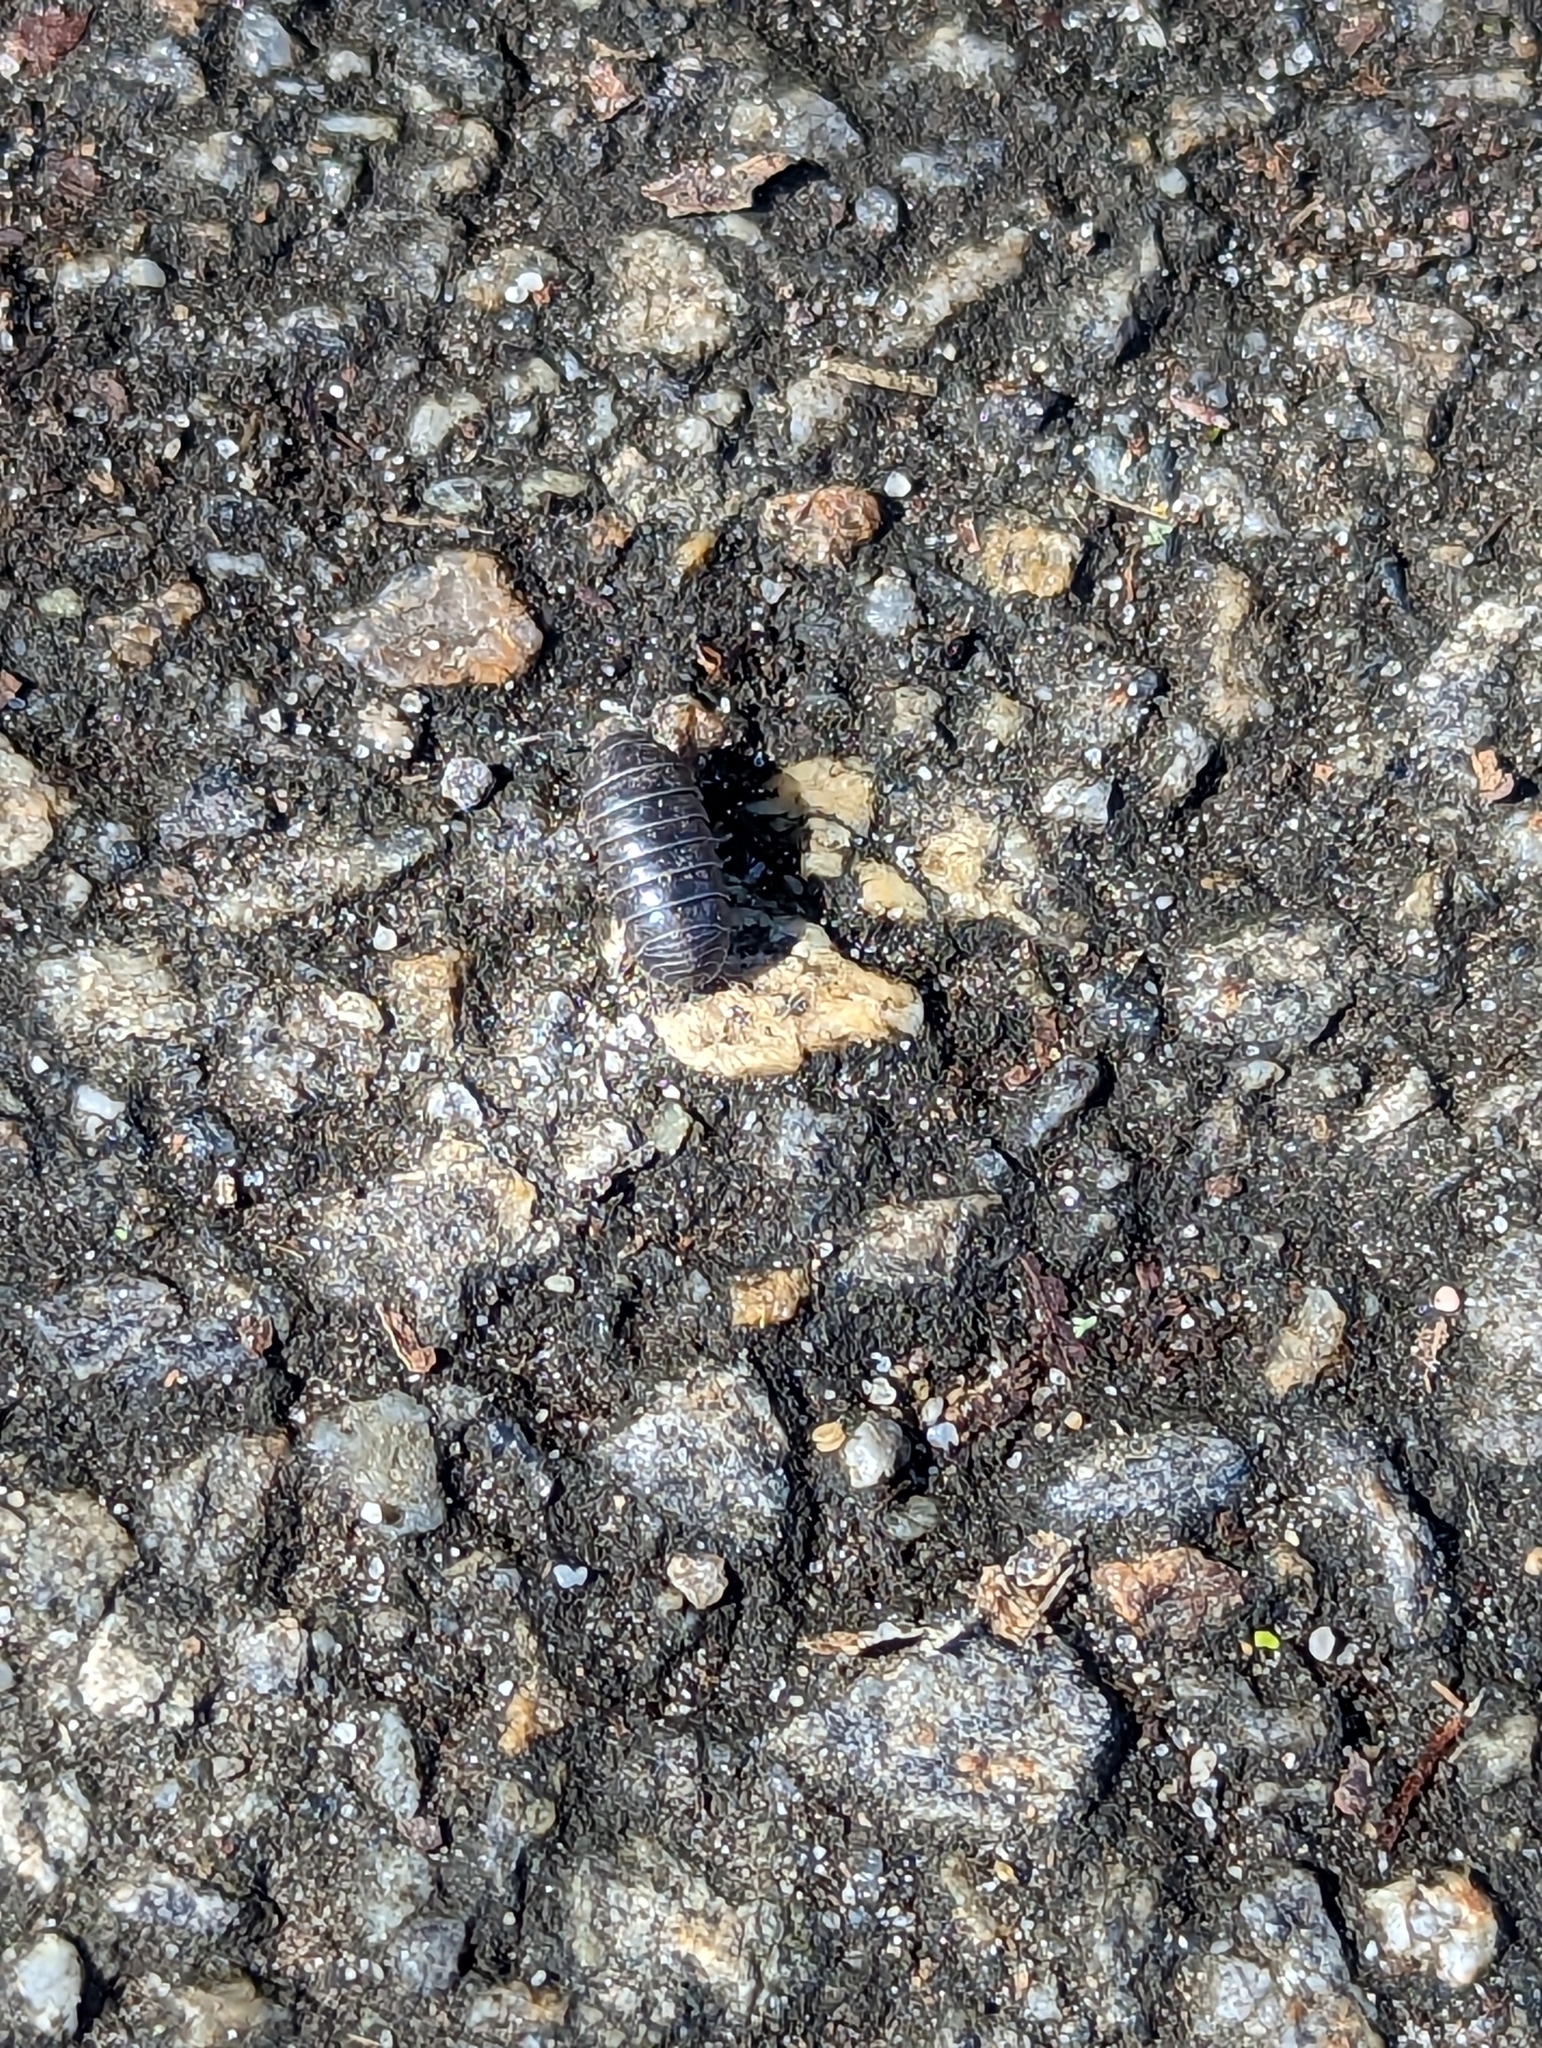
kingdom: Animalia
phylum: Arthropoda
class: Malacostraca
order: Isopoda
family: Armadillidiidae
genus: Armadillidium
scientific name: Armadillidium vulgare
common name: Common pill woodlouse
